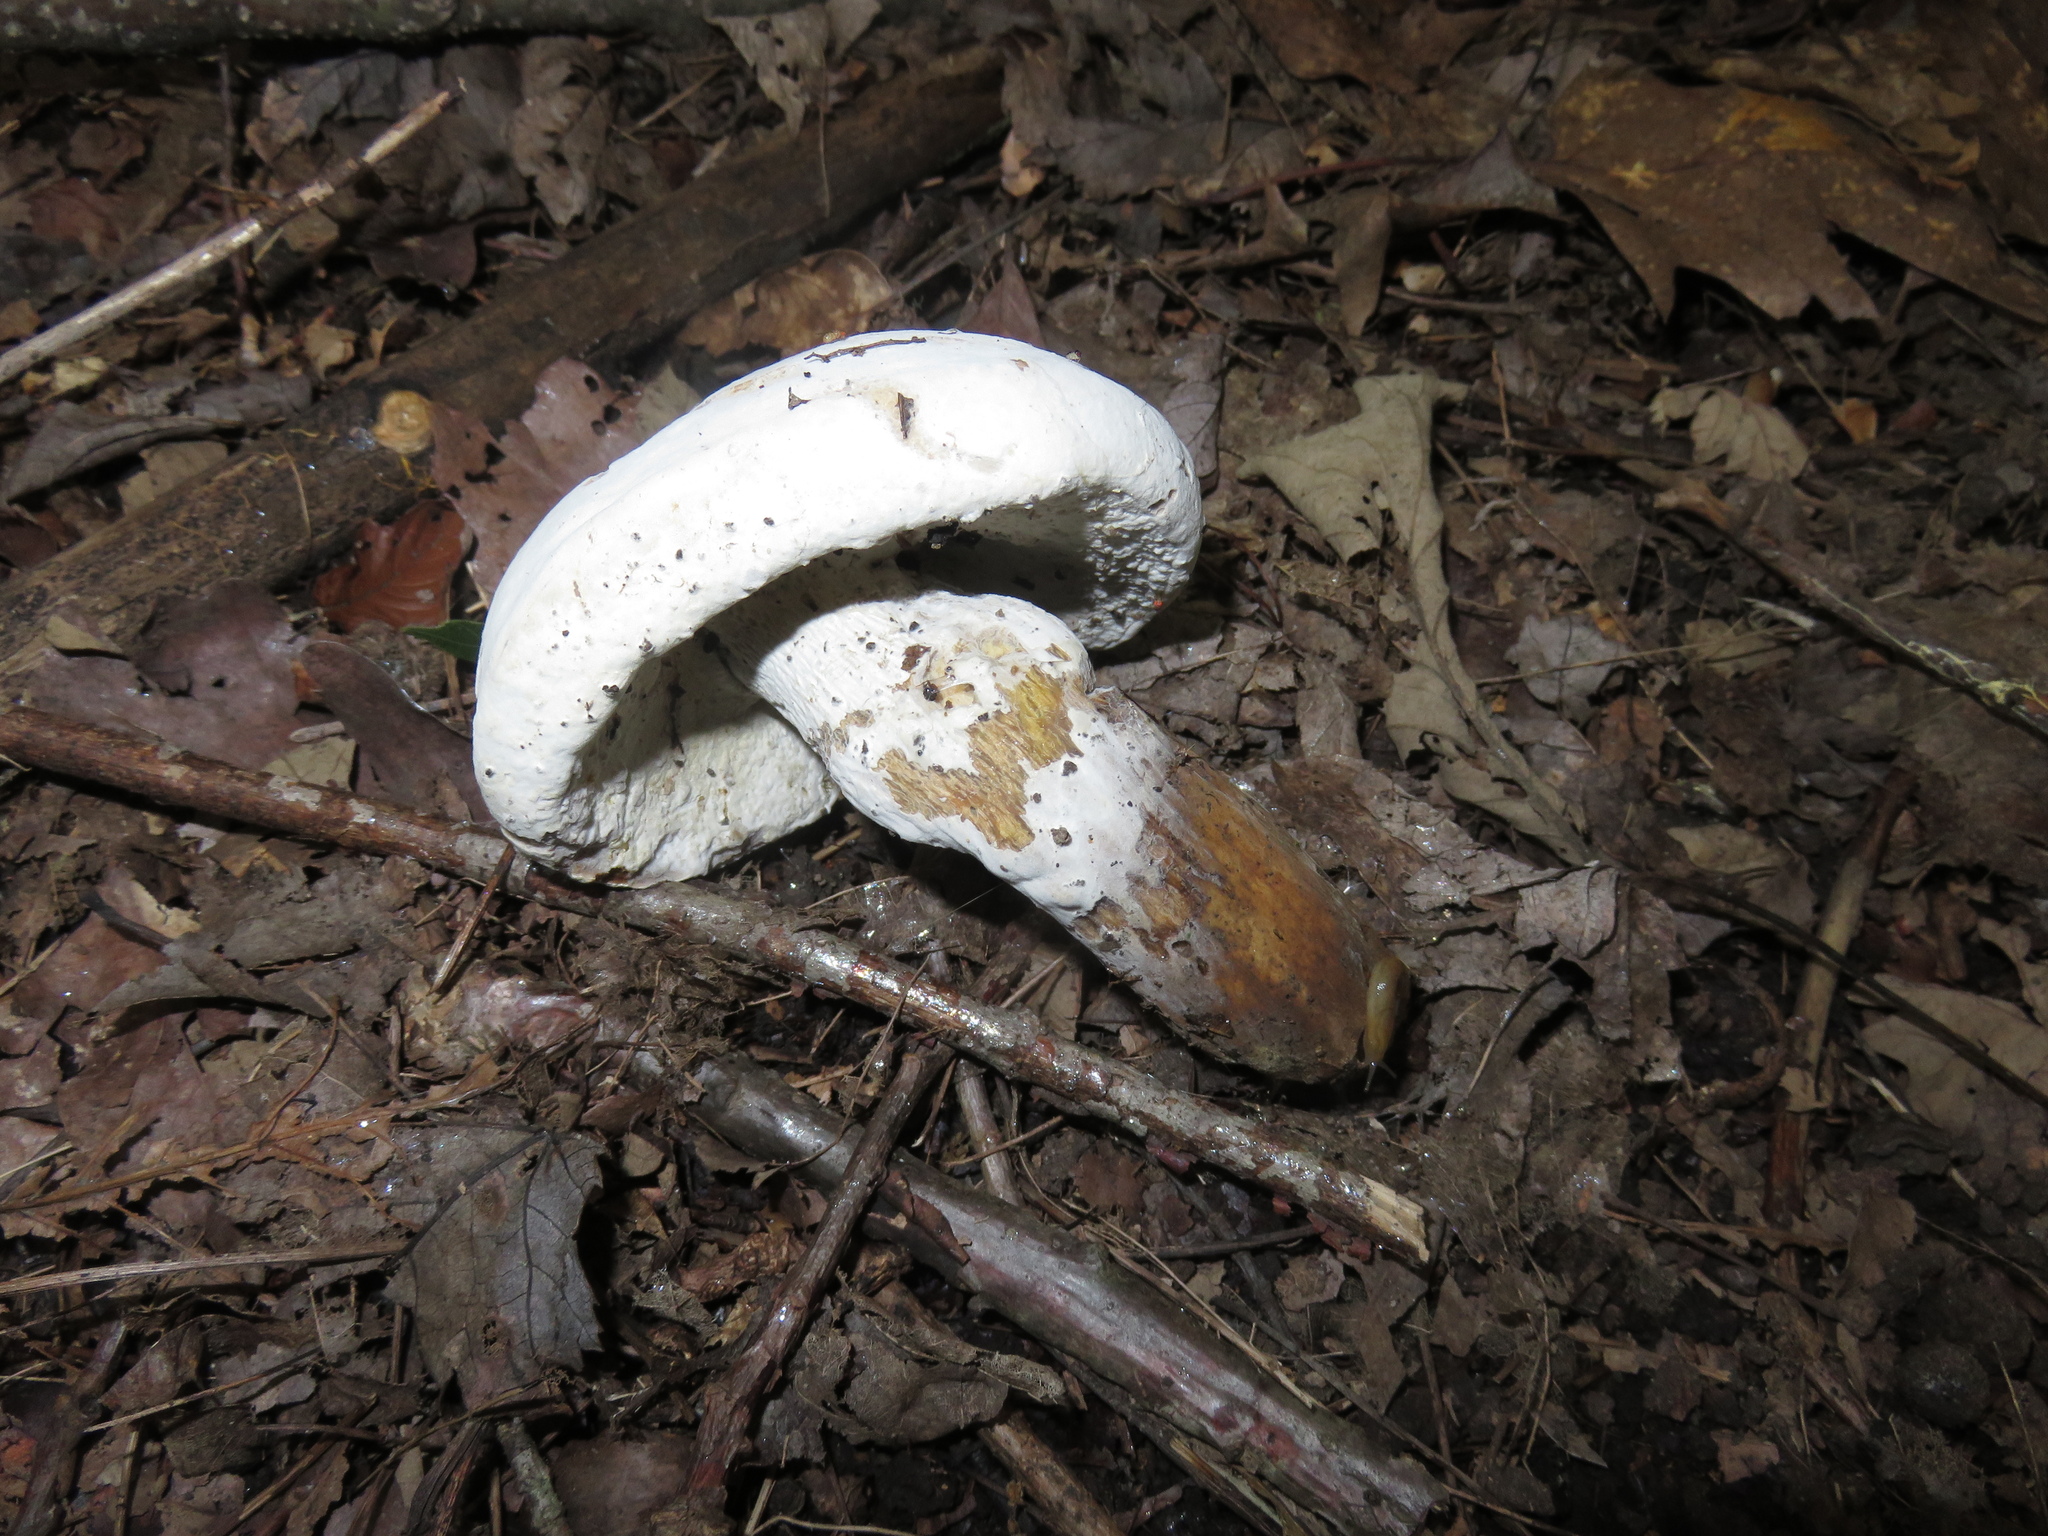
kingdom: Fungi
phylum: Ascomycota
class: Sordariomycetes
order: Hypocreales
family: Hypocreaceae
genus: Hypomyces
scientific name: Hypomyces chrysospermus
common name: Bolete mould
